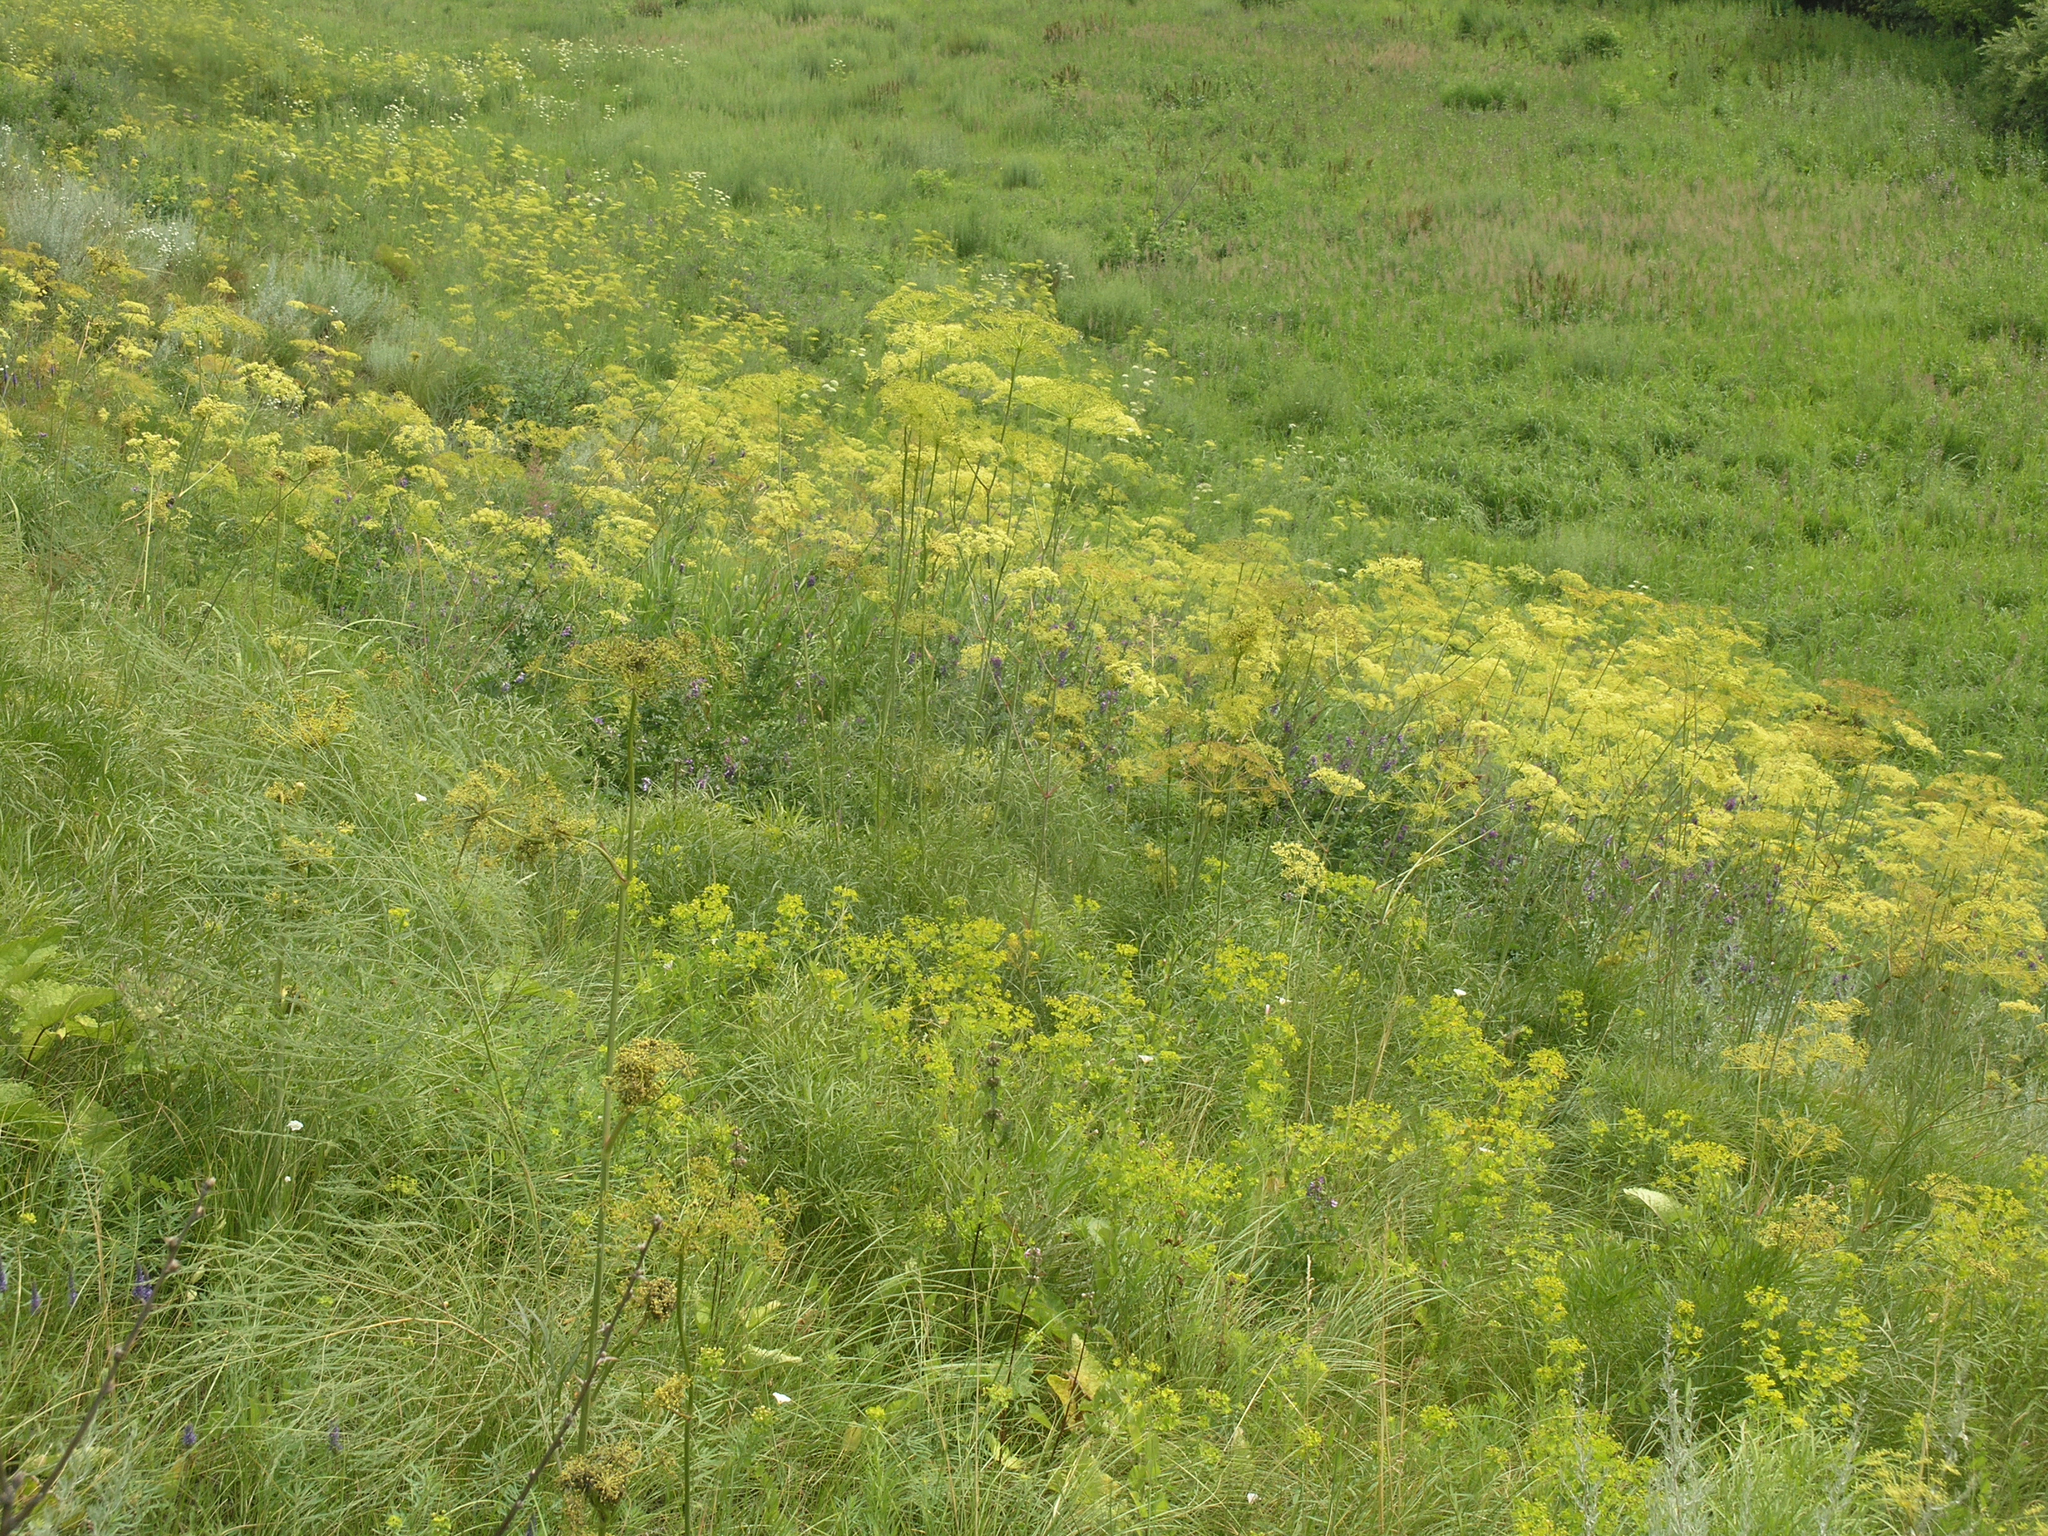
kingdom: Plantae
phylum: Tracheophyta
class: Magnoliopsida
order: Apiales
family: Apiaceae
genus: Peucedanum
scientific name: Peucedanum morisonii
